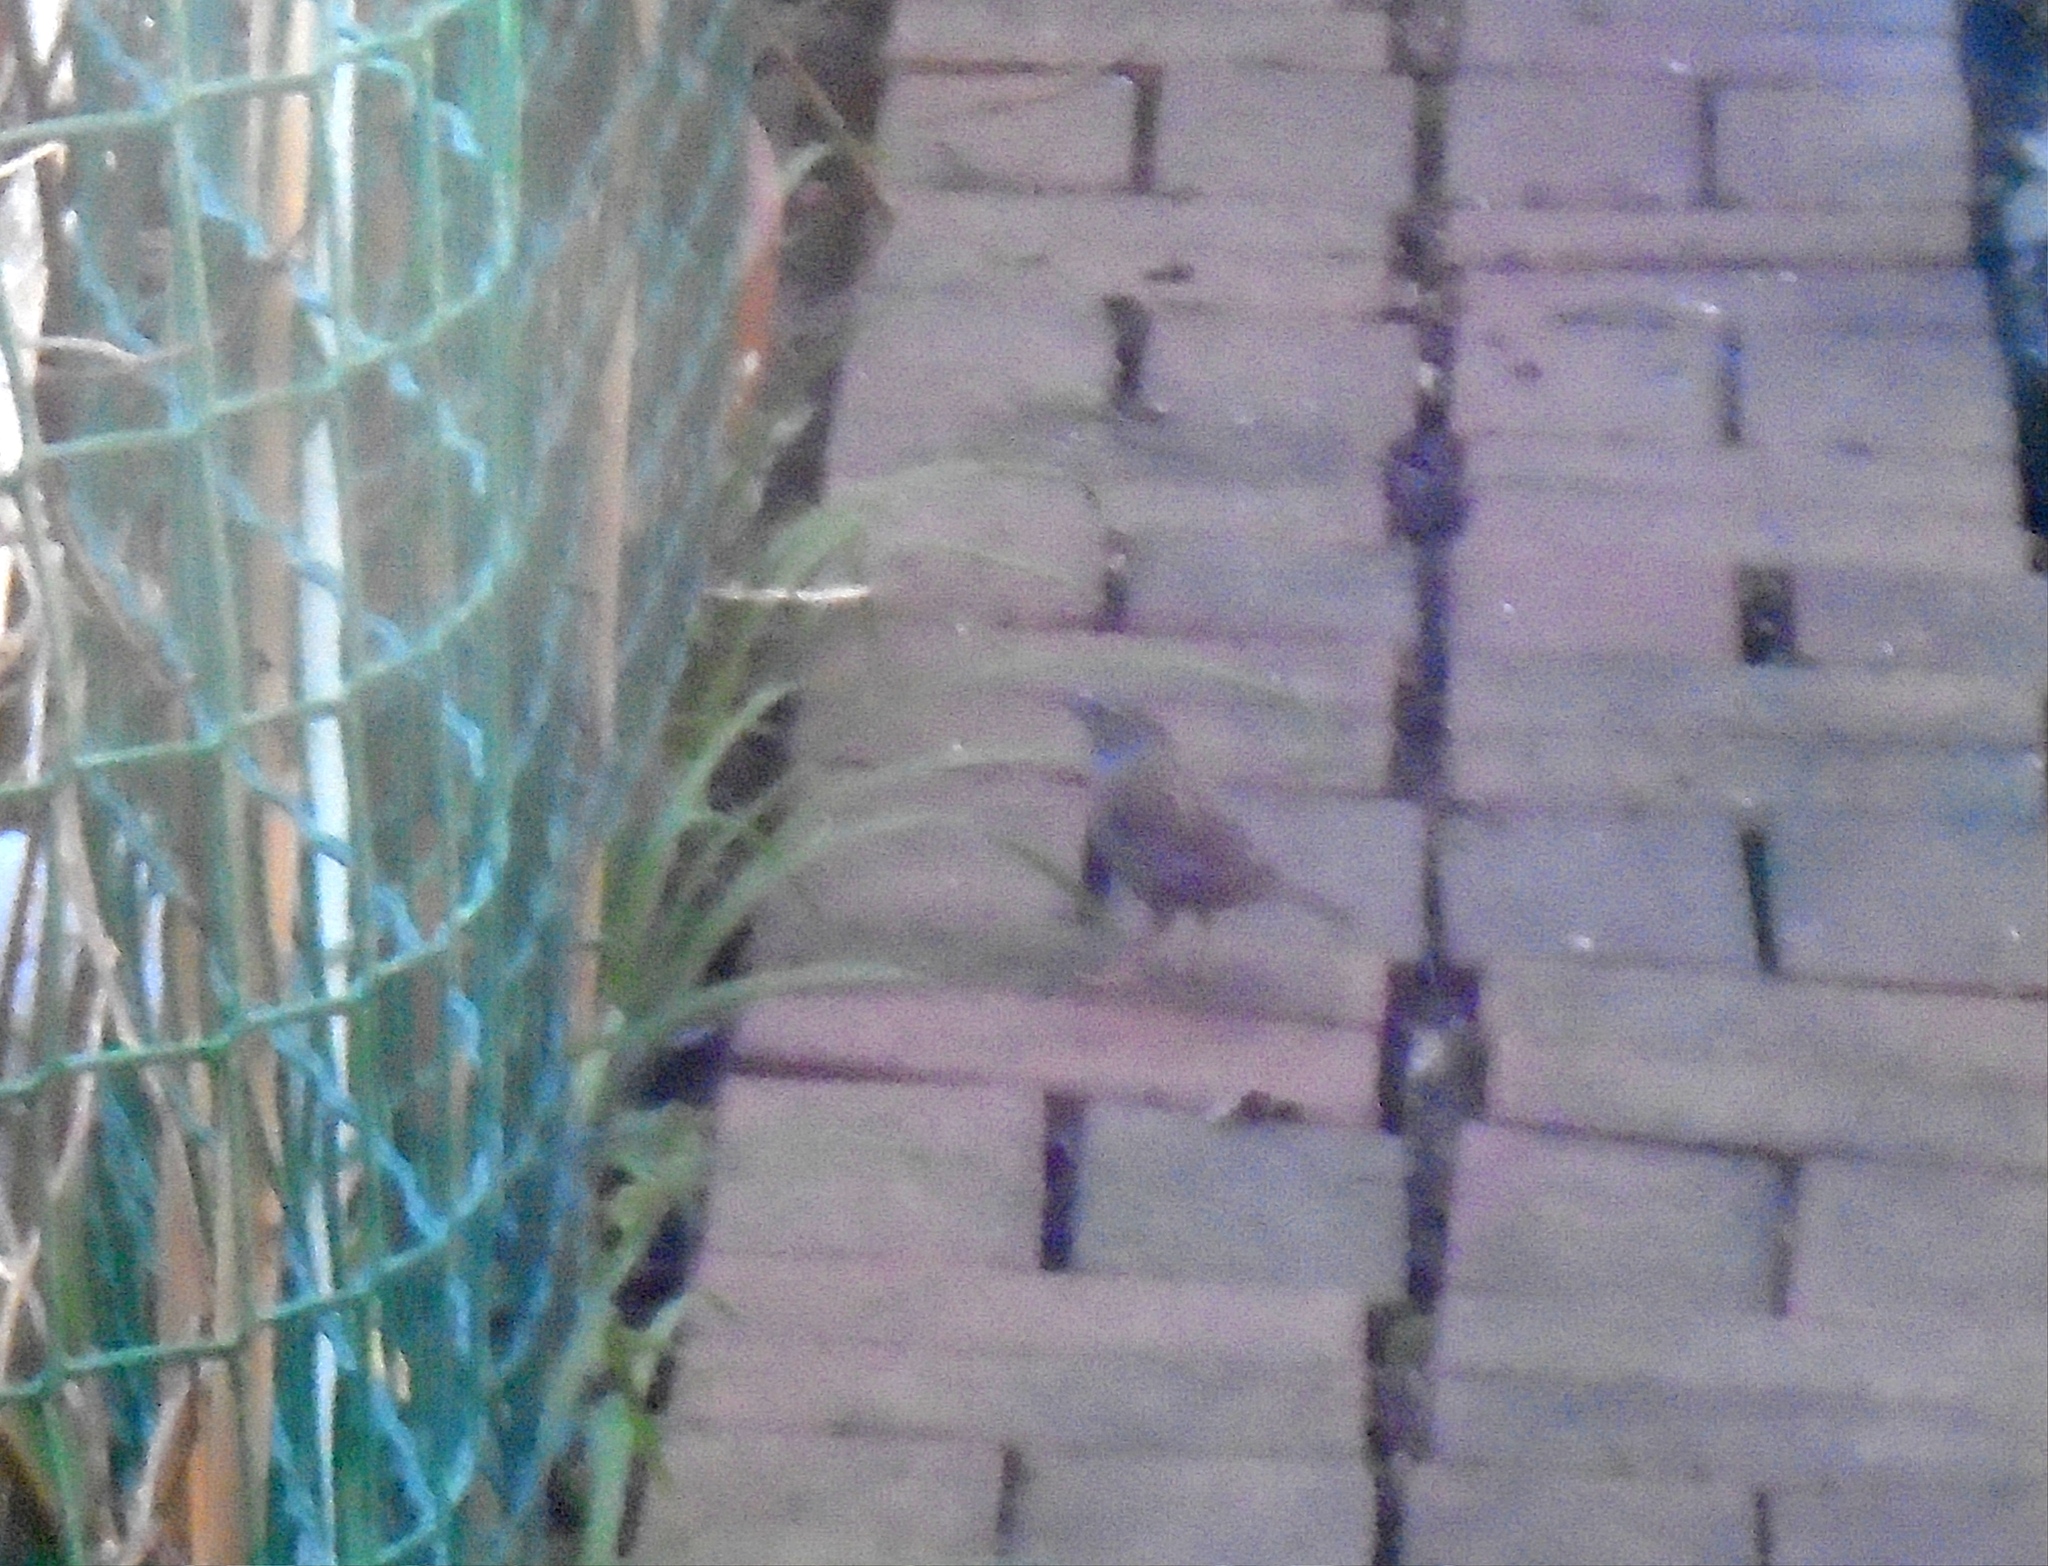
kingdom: Animalia
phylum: Chordata
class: Aves
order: Passeriformes
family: Prunellidae
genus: Prunella
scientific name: Prunella modularis
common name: Dunnock
